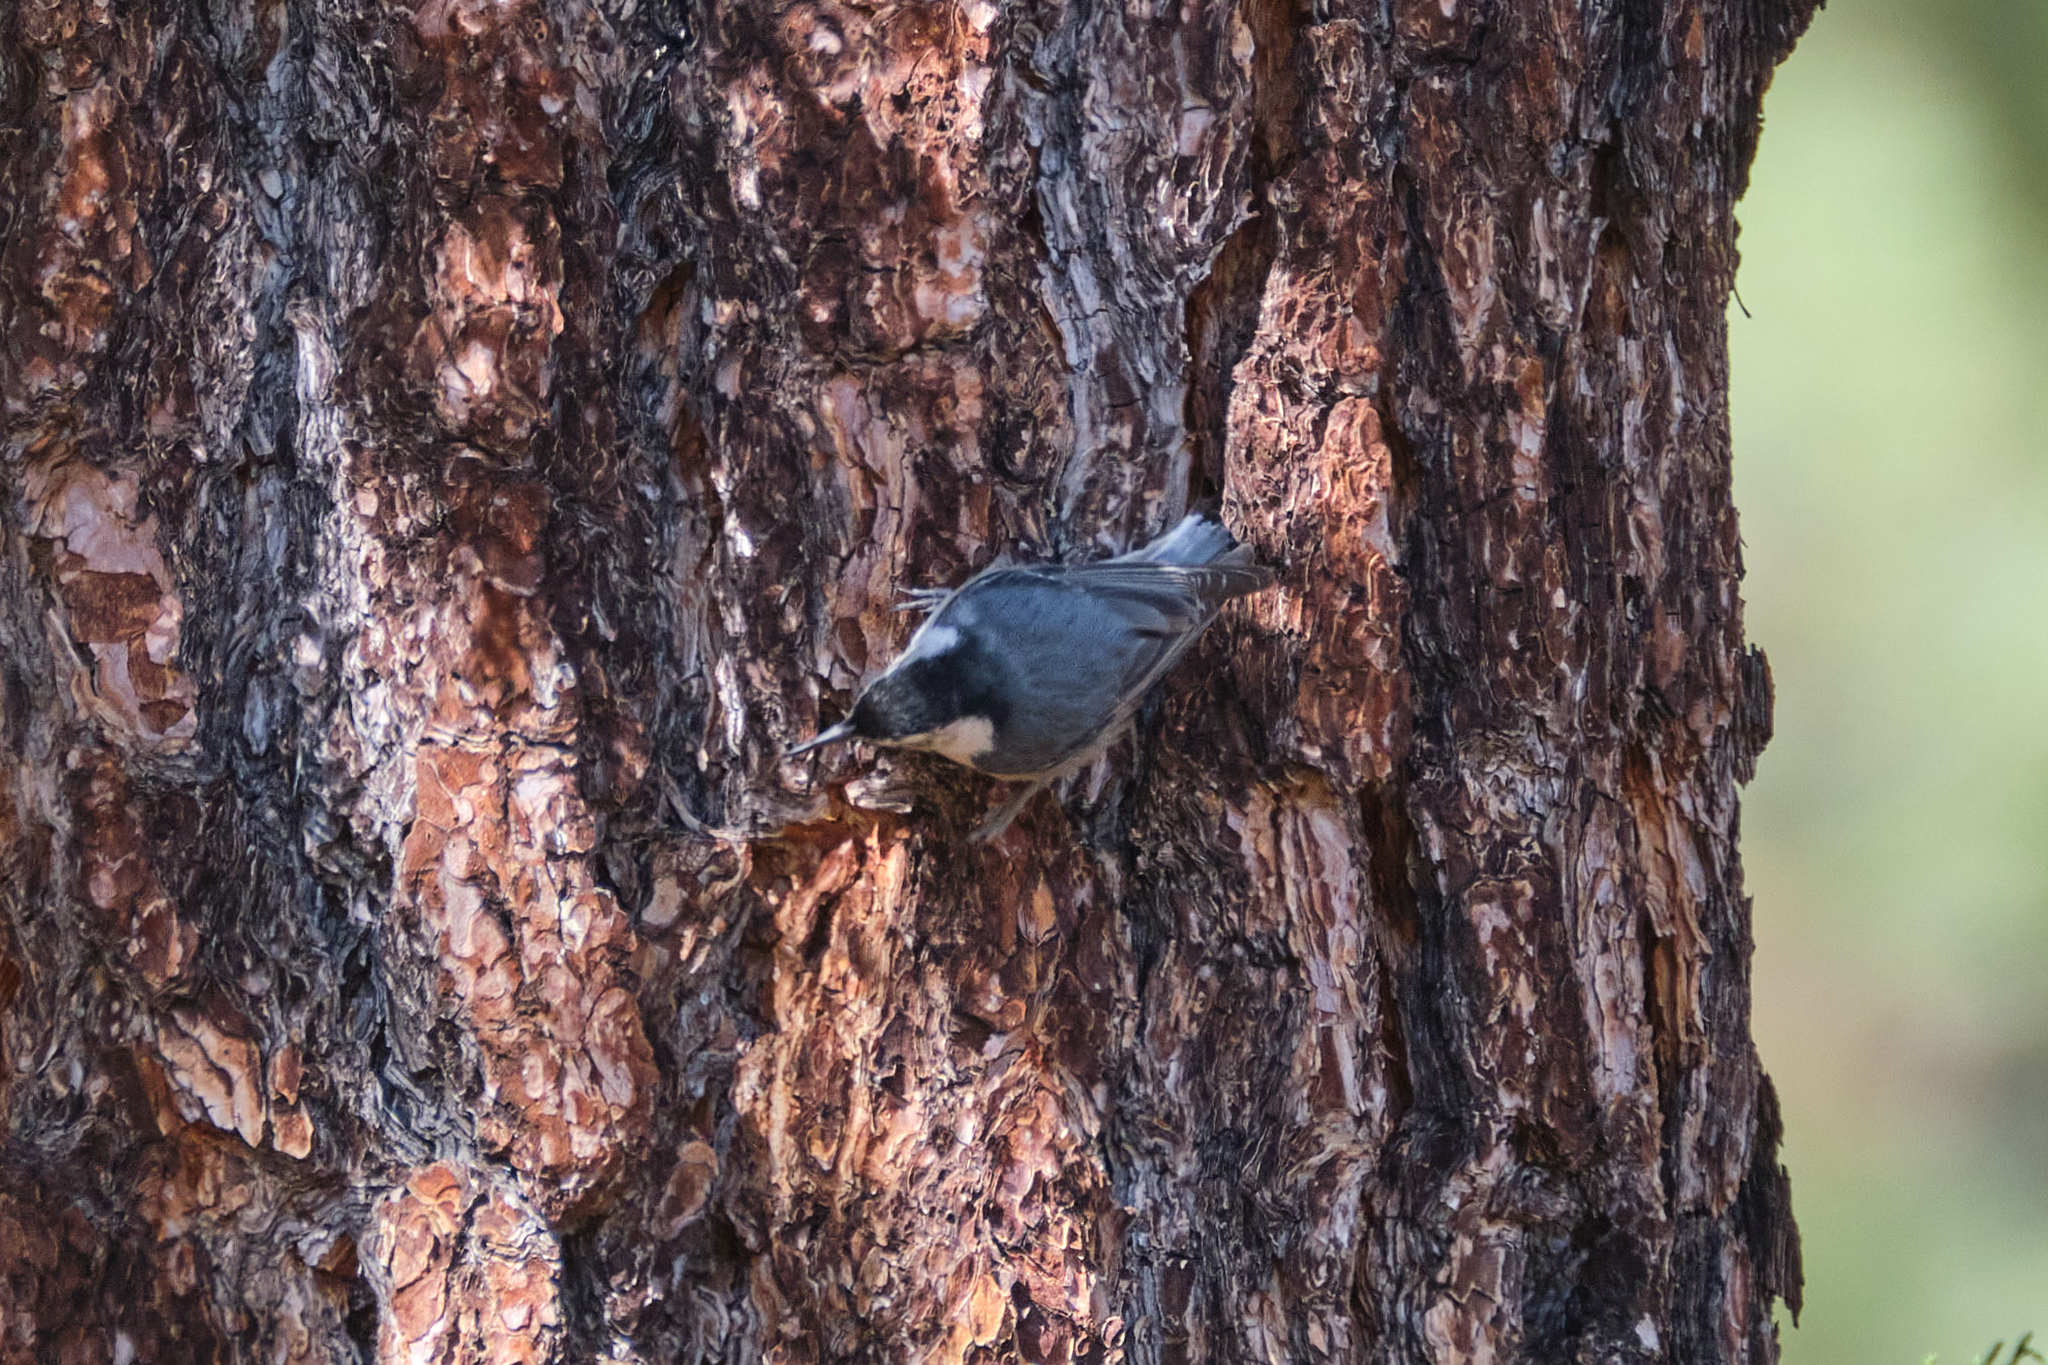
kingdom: Animalia
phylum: Chordata
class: Aves
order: Passeriformes
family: Sittidae
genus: Sitta
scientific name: Sitta carolinensis
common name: White-breasted nuthatch
